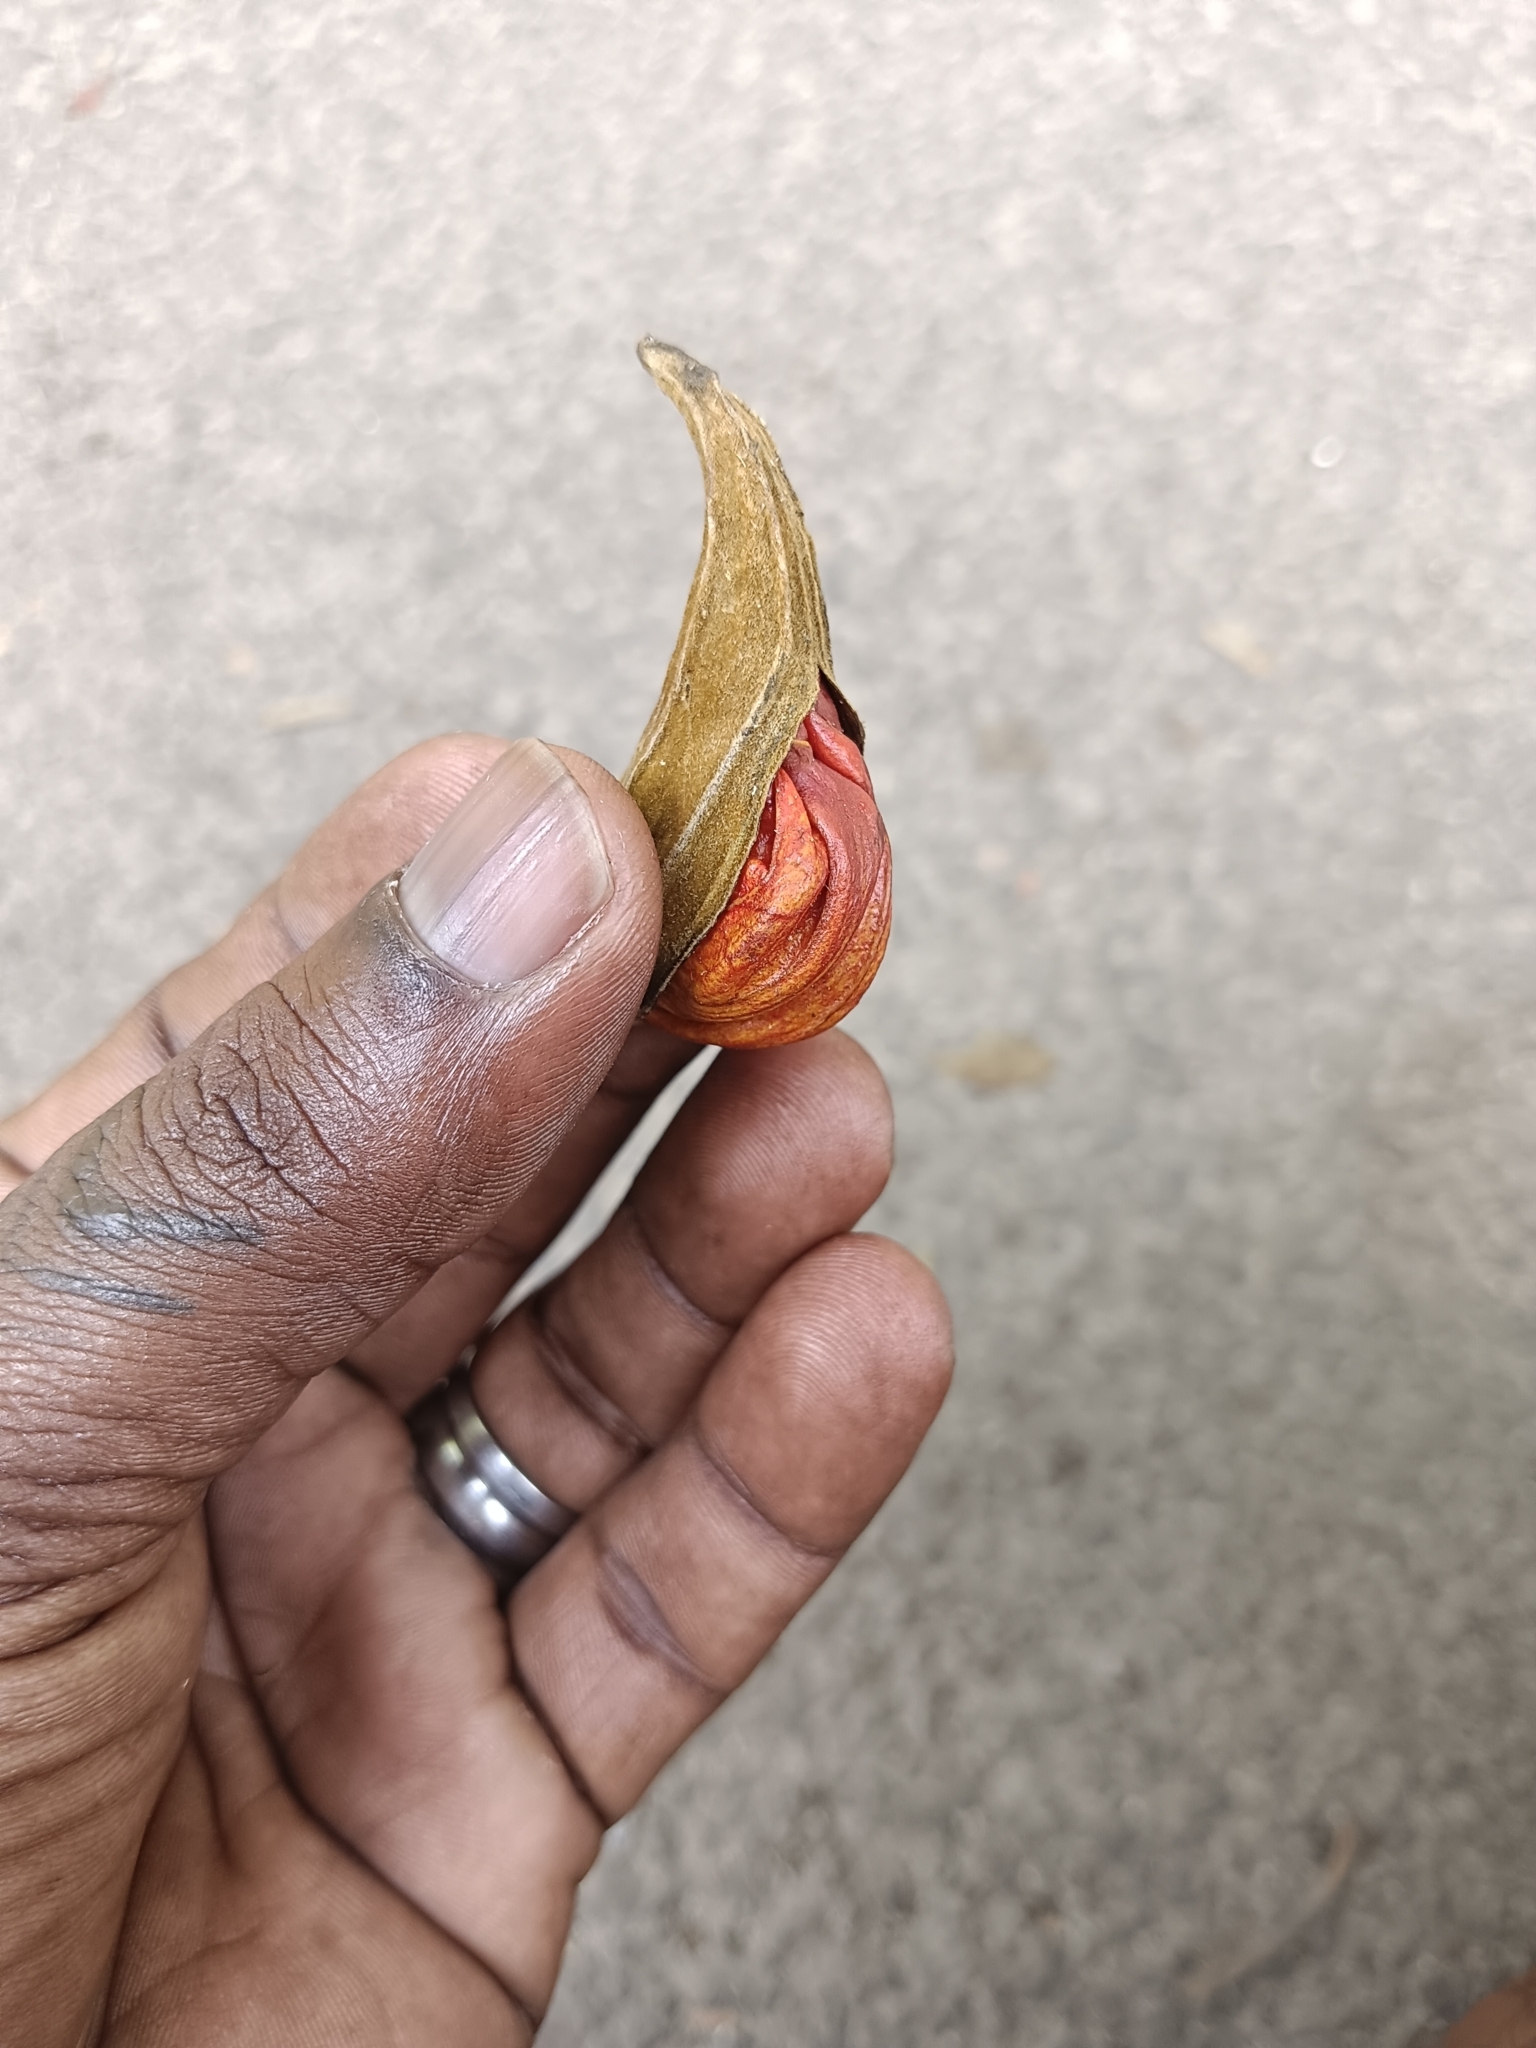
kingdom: Plantae
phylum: Tracheophyta
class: Magnoliopsida
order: Lamiales
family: Bignoniaceae
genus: Spathodea
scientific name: Spathodea campanulata
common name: African tuliptree
